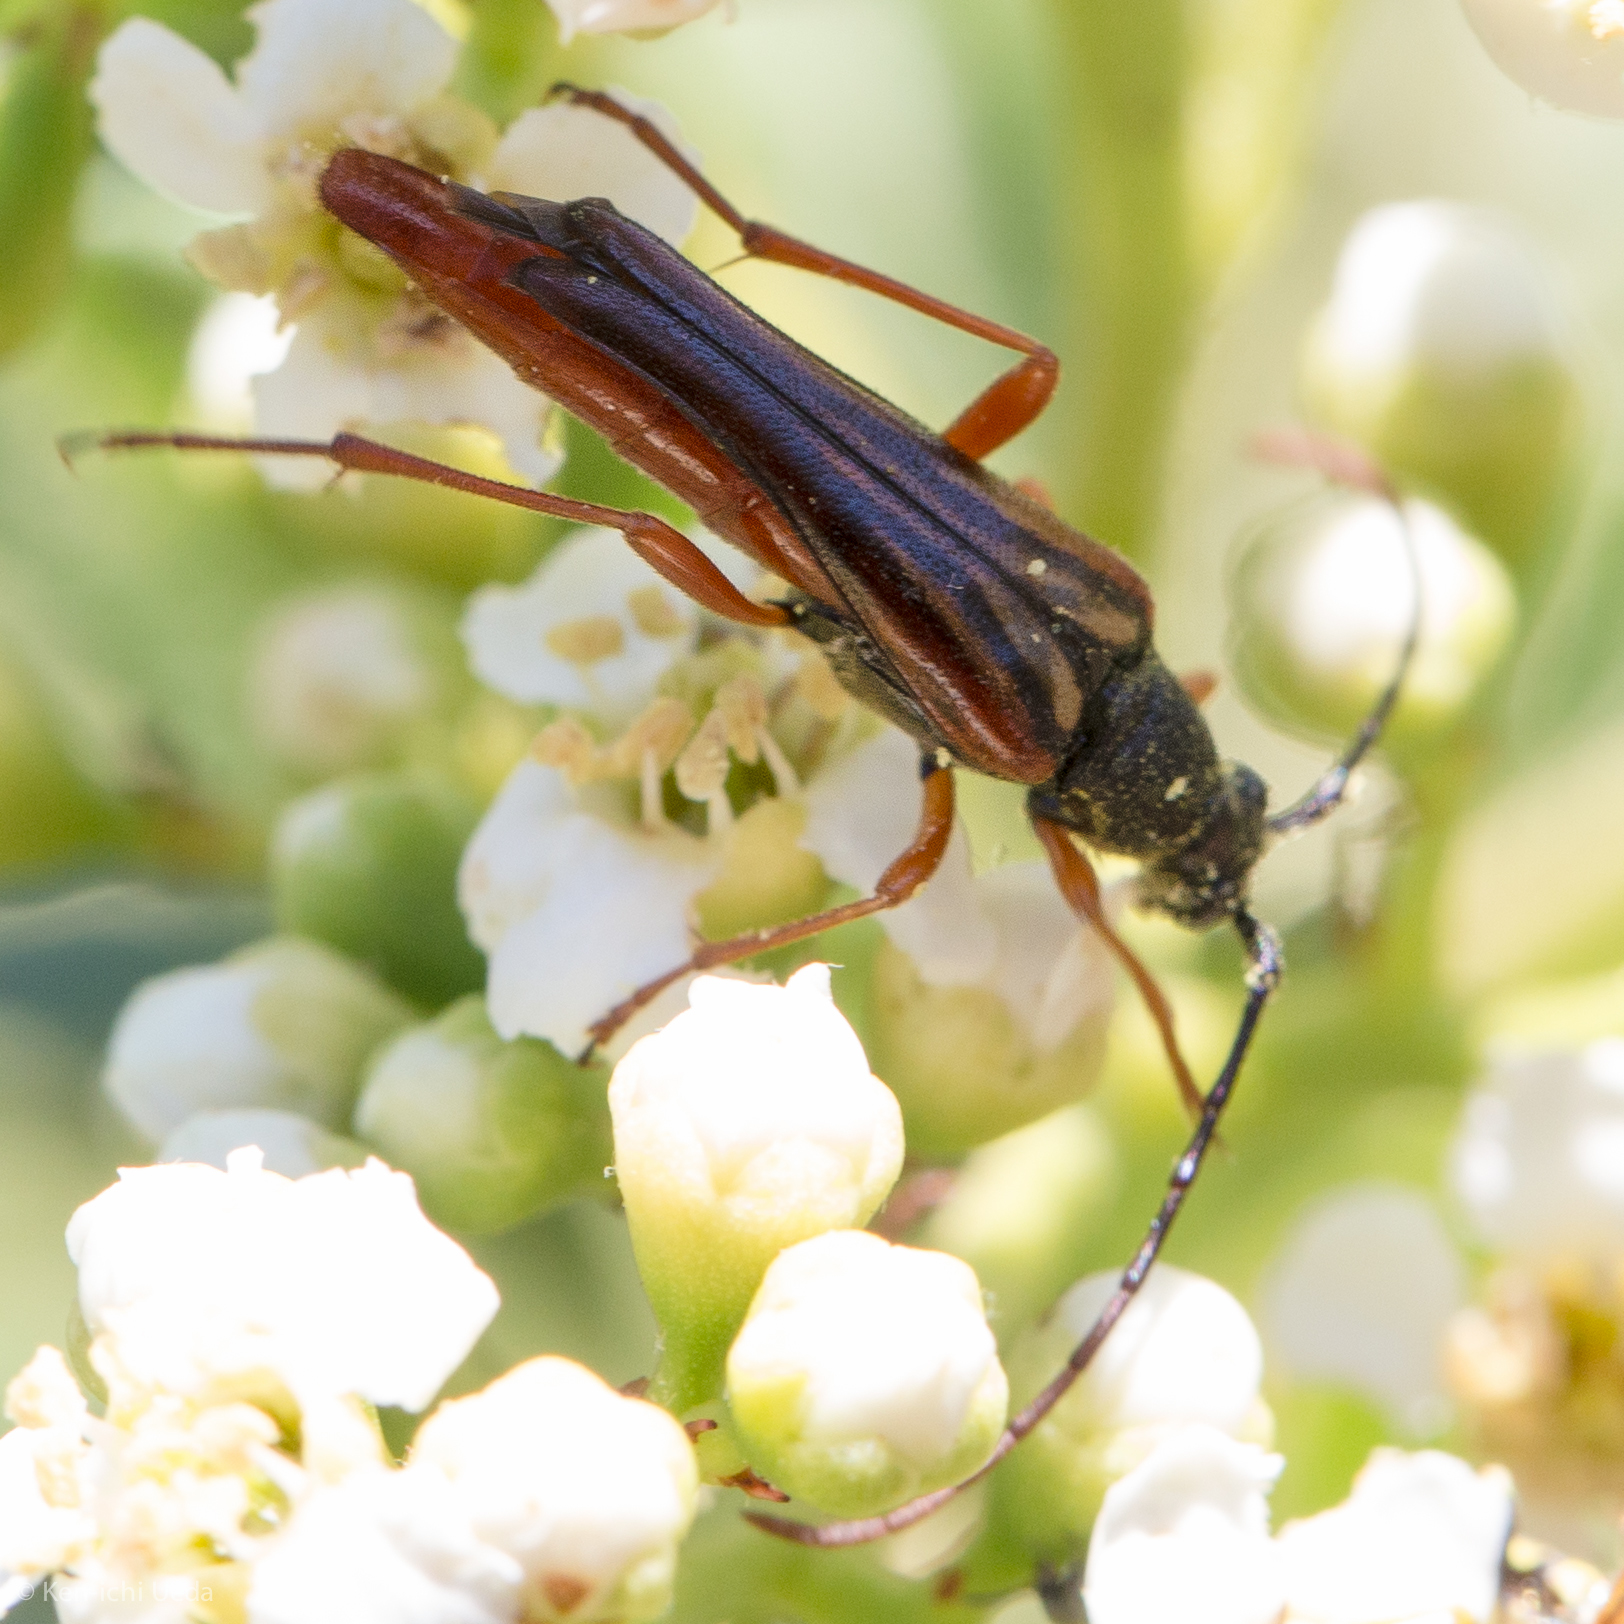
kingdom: Animalia
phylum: Arthropoda
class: Insecta
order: Coleoptera
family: Cerambycidae
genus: Neobellamira
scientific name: Neobellamira delicata
